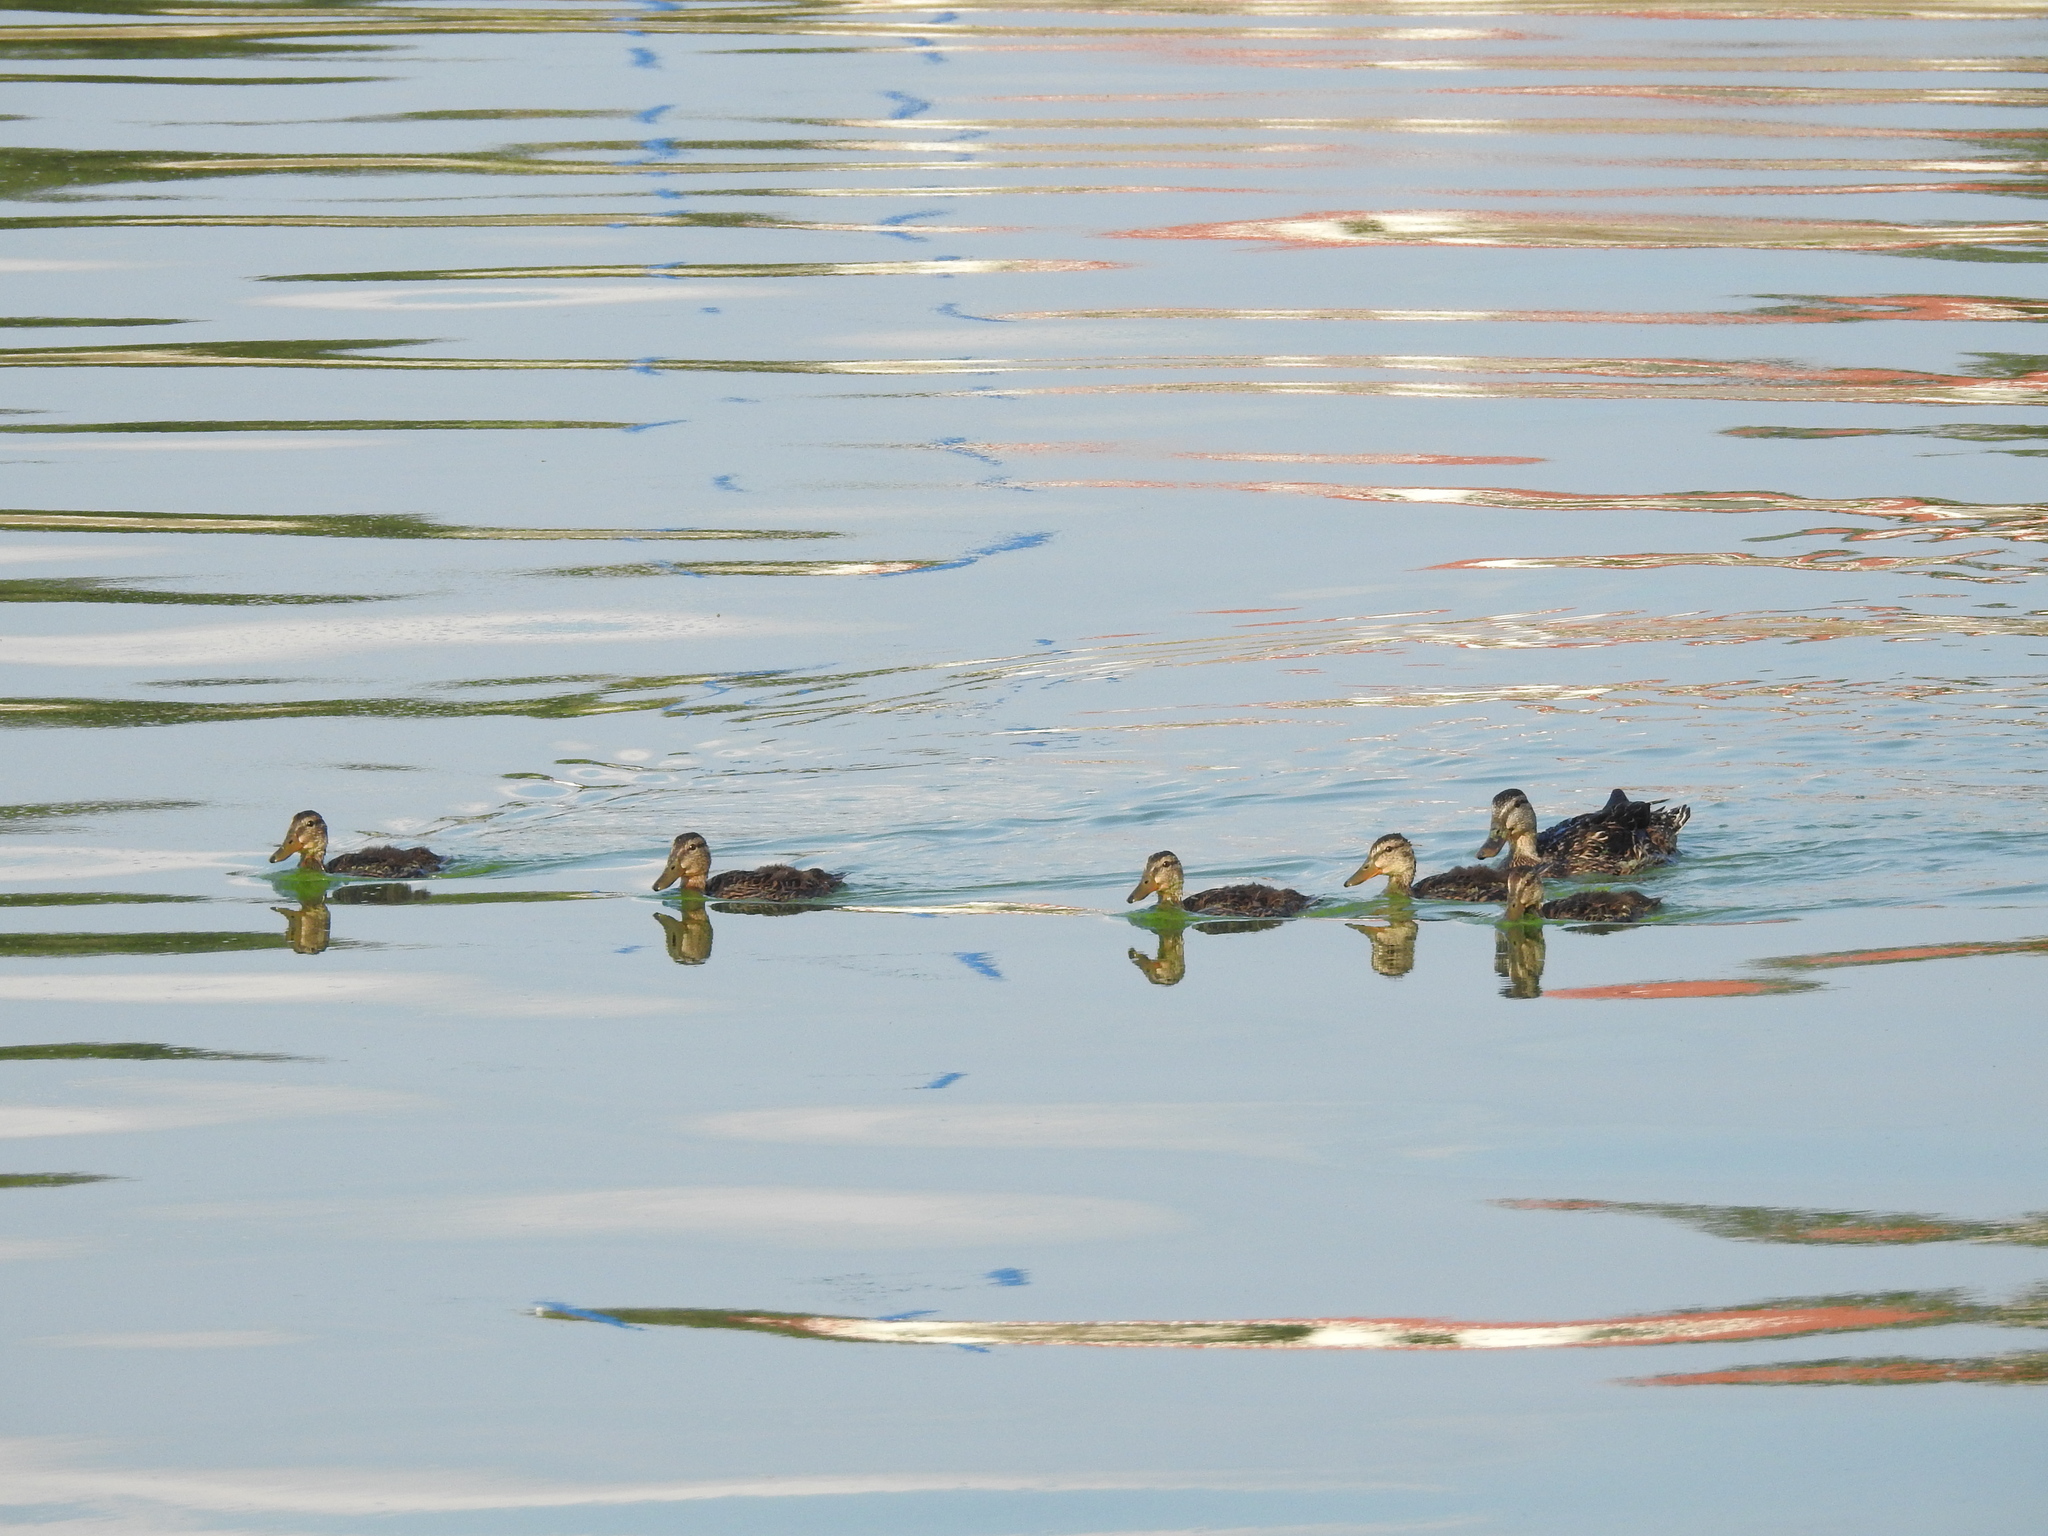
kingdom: Animalia
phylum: Chordata
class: Aves
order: Anseriformes
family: Anatidae
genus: Anas
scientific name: Anas fulvigula
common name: Mottled duck
